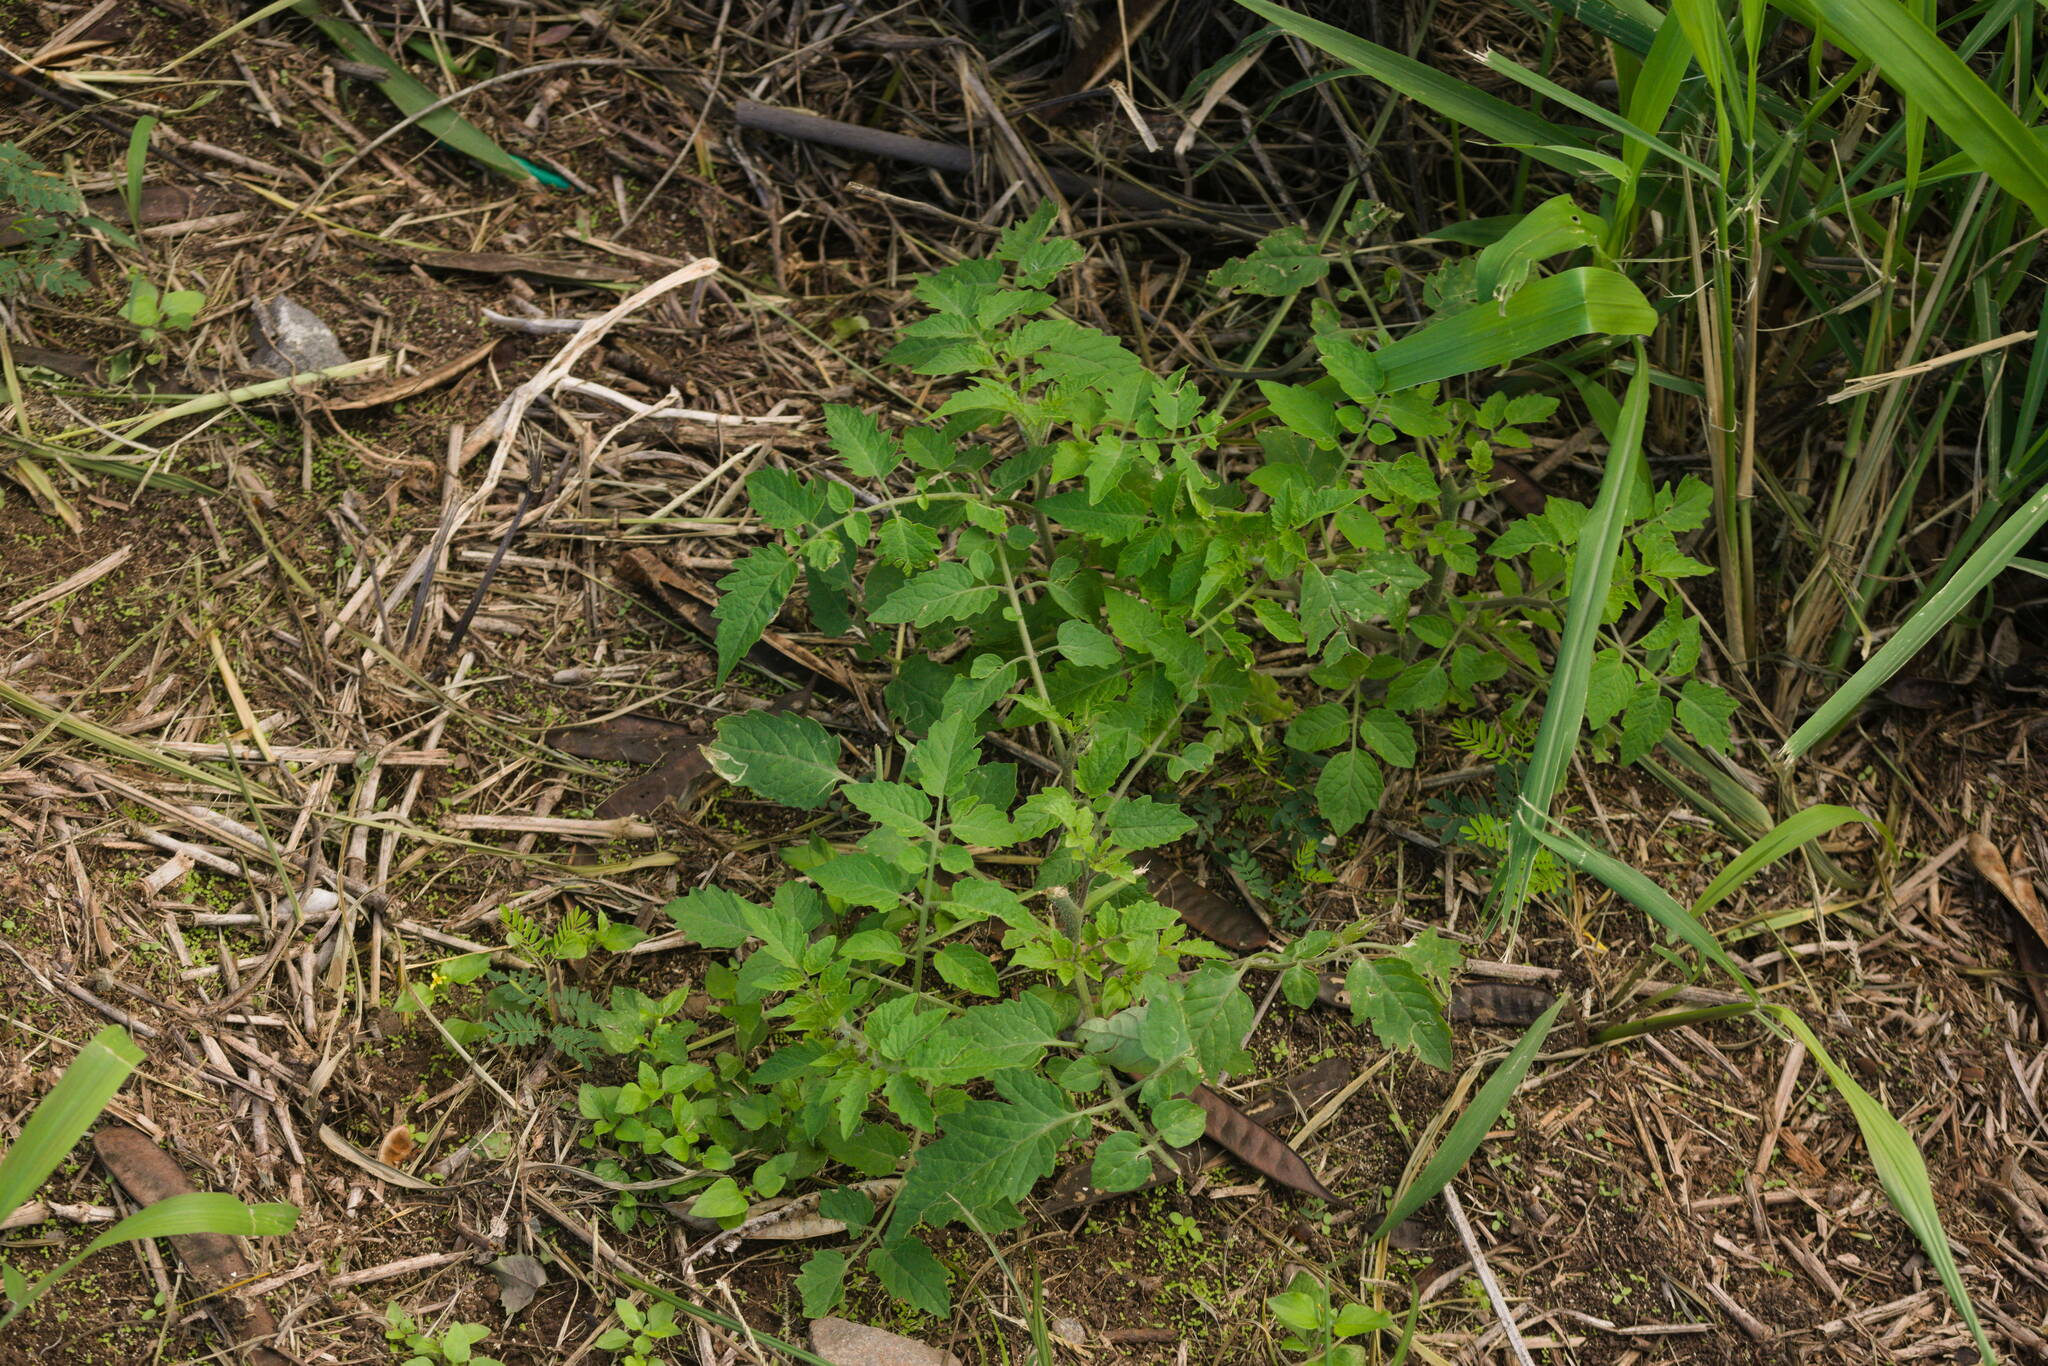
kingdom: Plantae
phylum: Tracheophyta
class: Magnoliopsida
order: Solanales
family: Solanaceae
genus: Solanum
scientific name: Solanum lycopersicum
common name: Garden tomato
